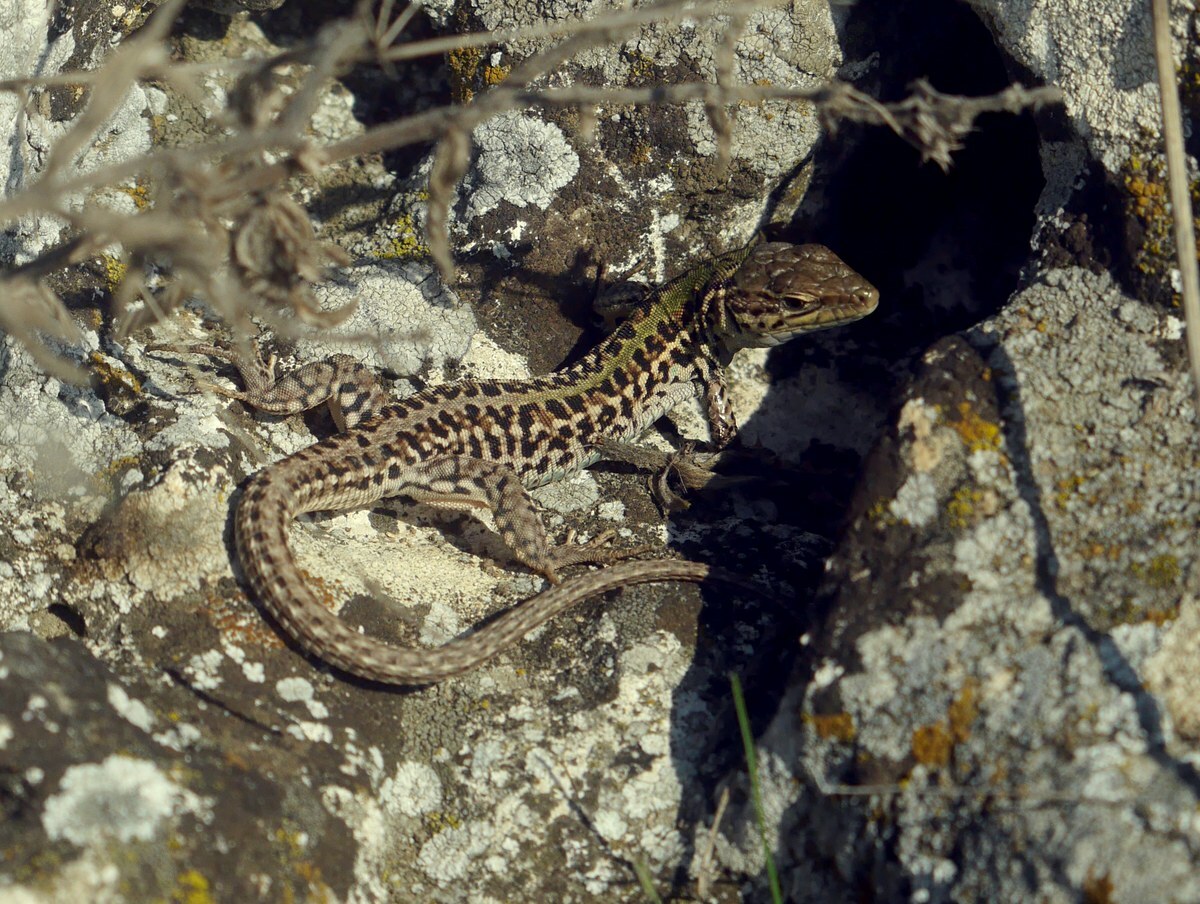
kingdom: Animalia
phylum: Chordata
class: Squamata
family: Lacertidae
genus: Podarcis
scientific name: Podarcis tauricus
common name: Balkan wall lizard
